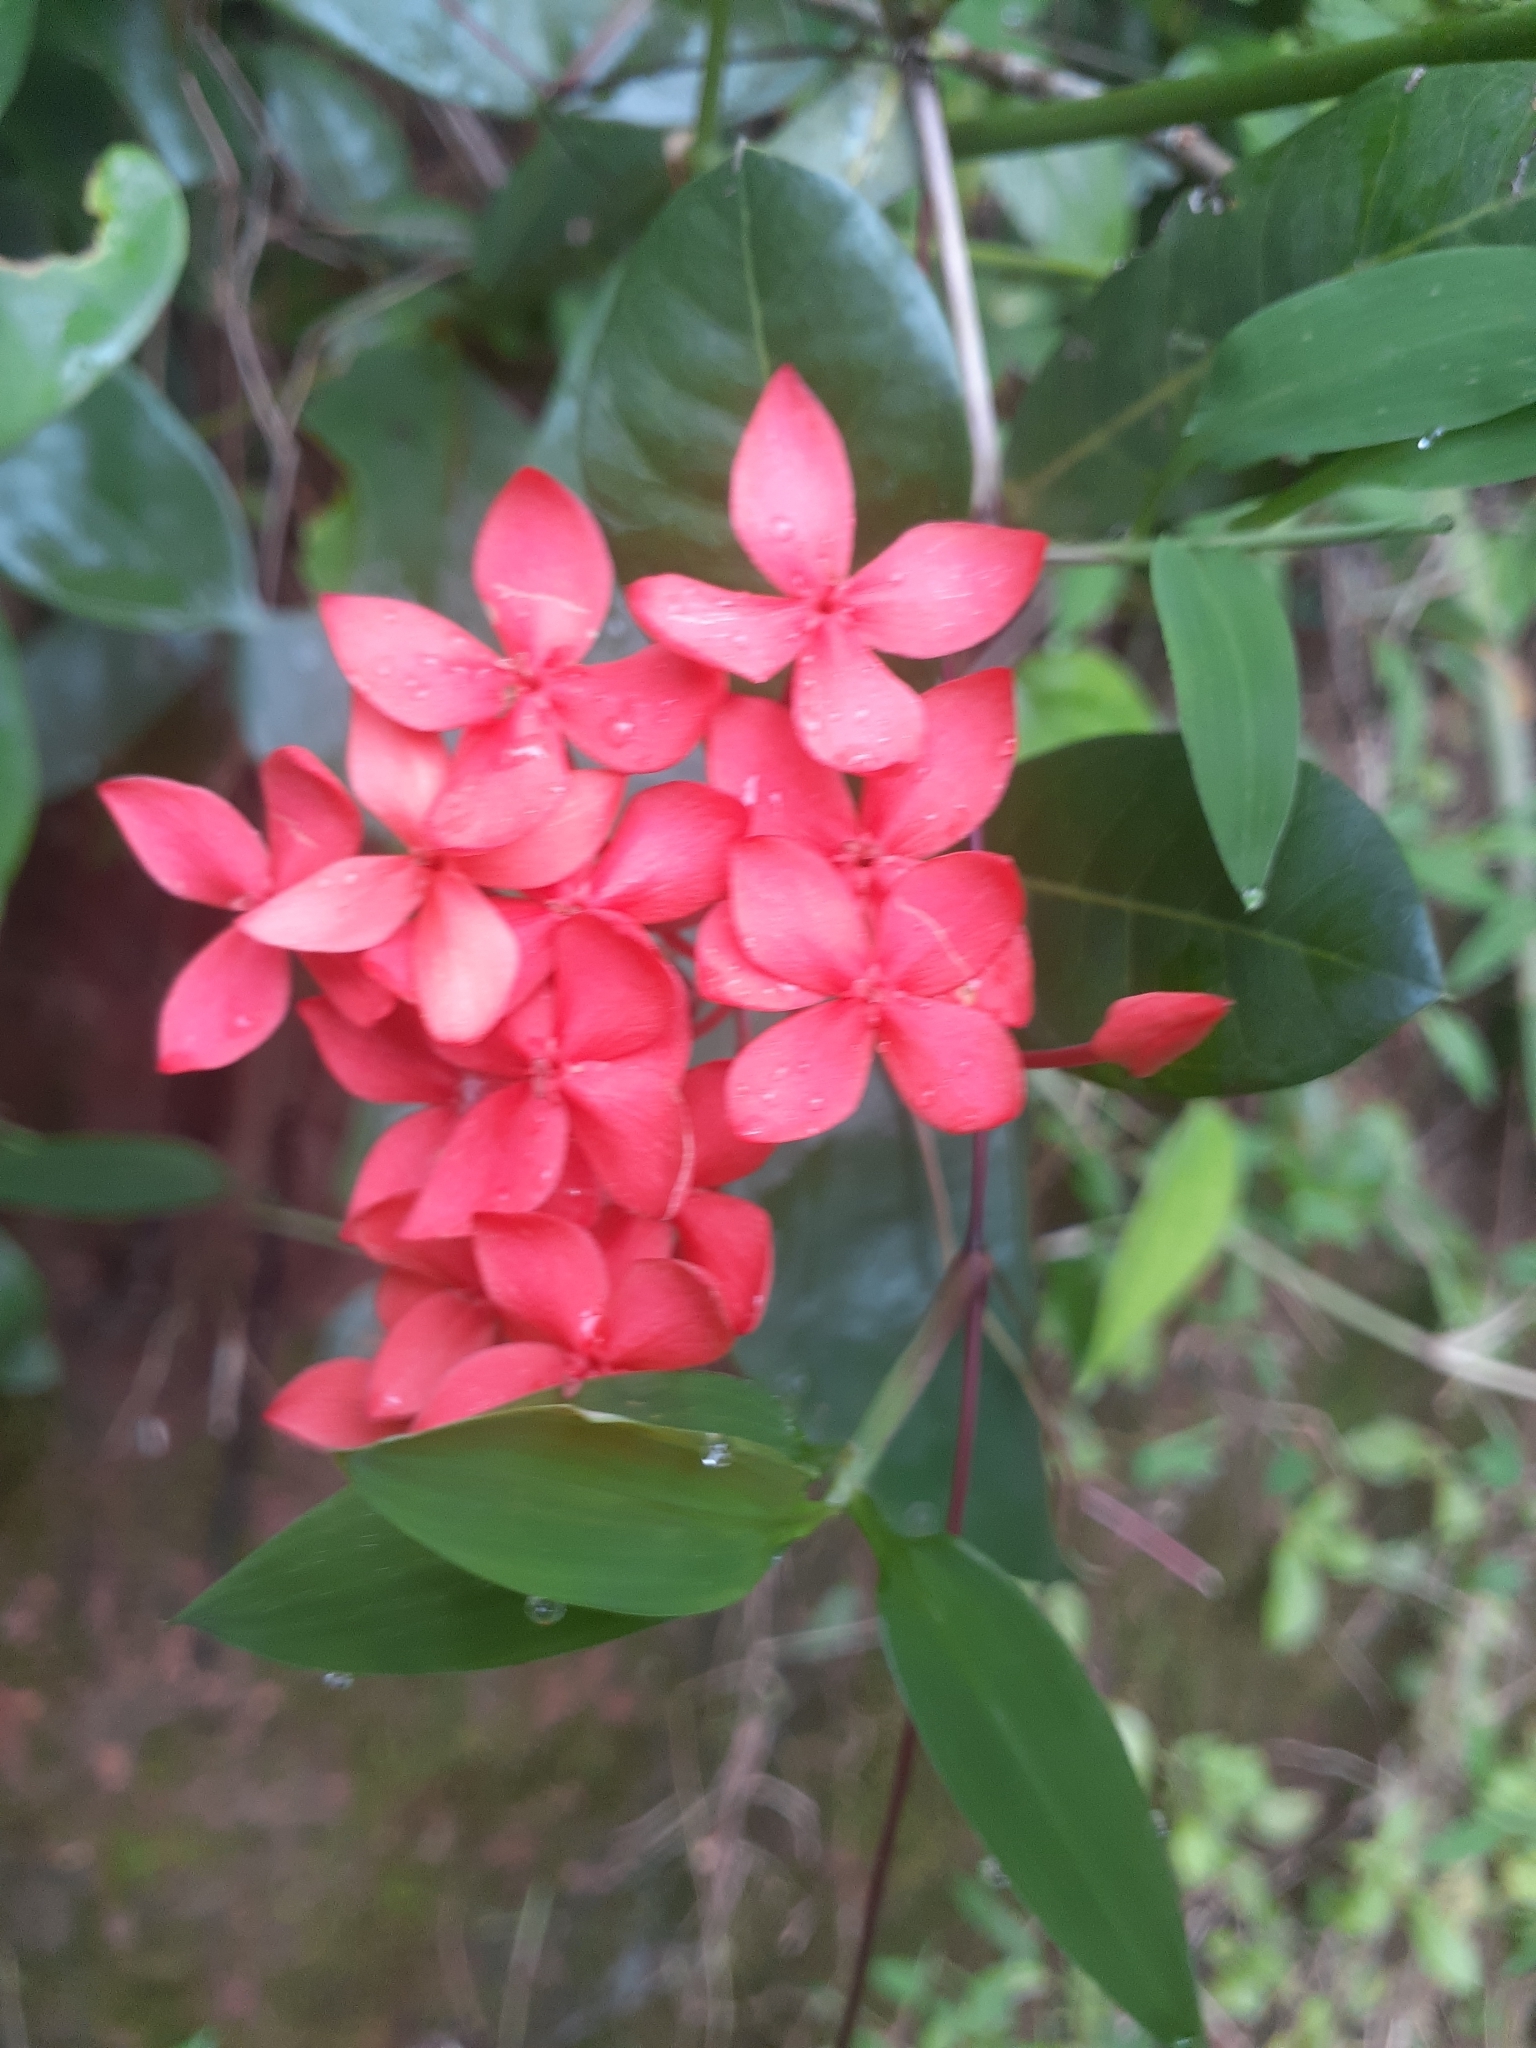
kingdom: Plantae
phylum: Tracheophyta
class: Magnoliopsida
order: Gentianales
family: Rubiaceae
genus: Ixora
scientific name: Ixora coccinea
